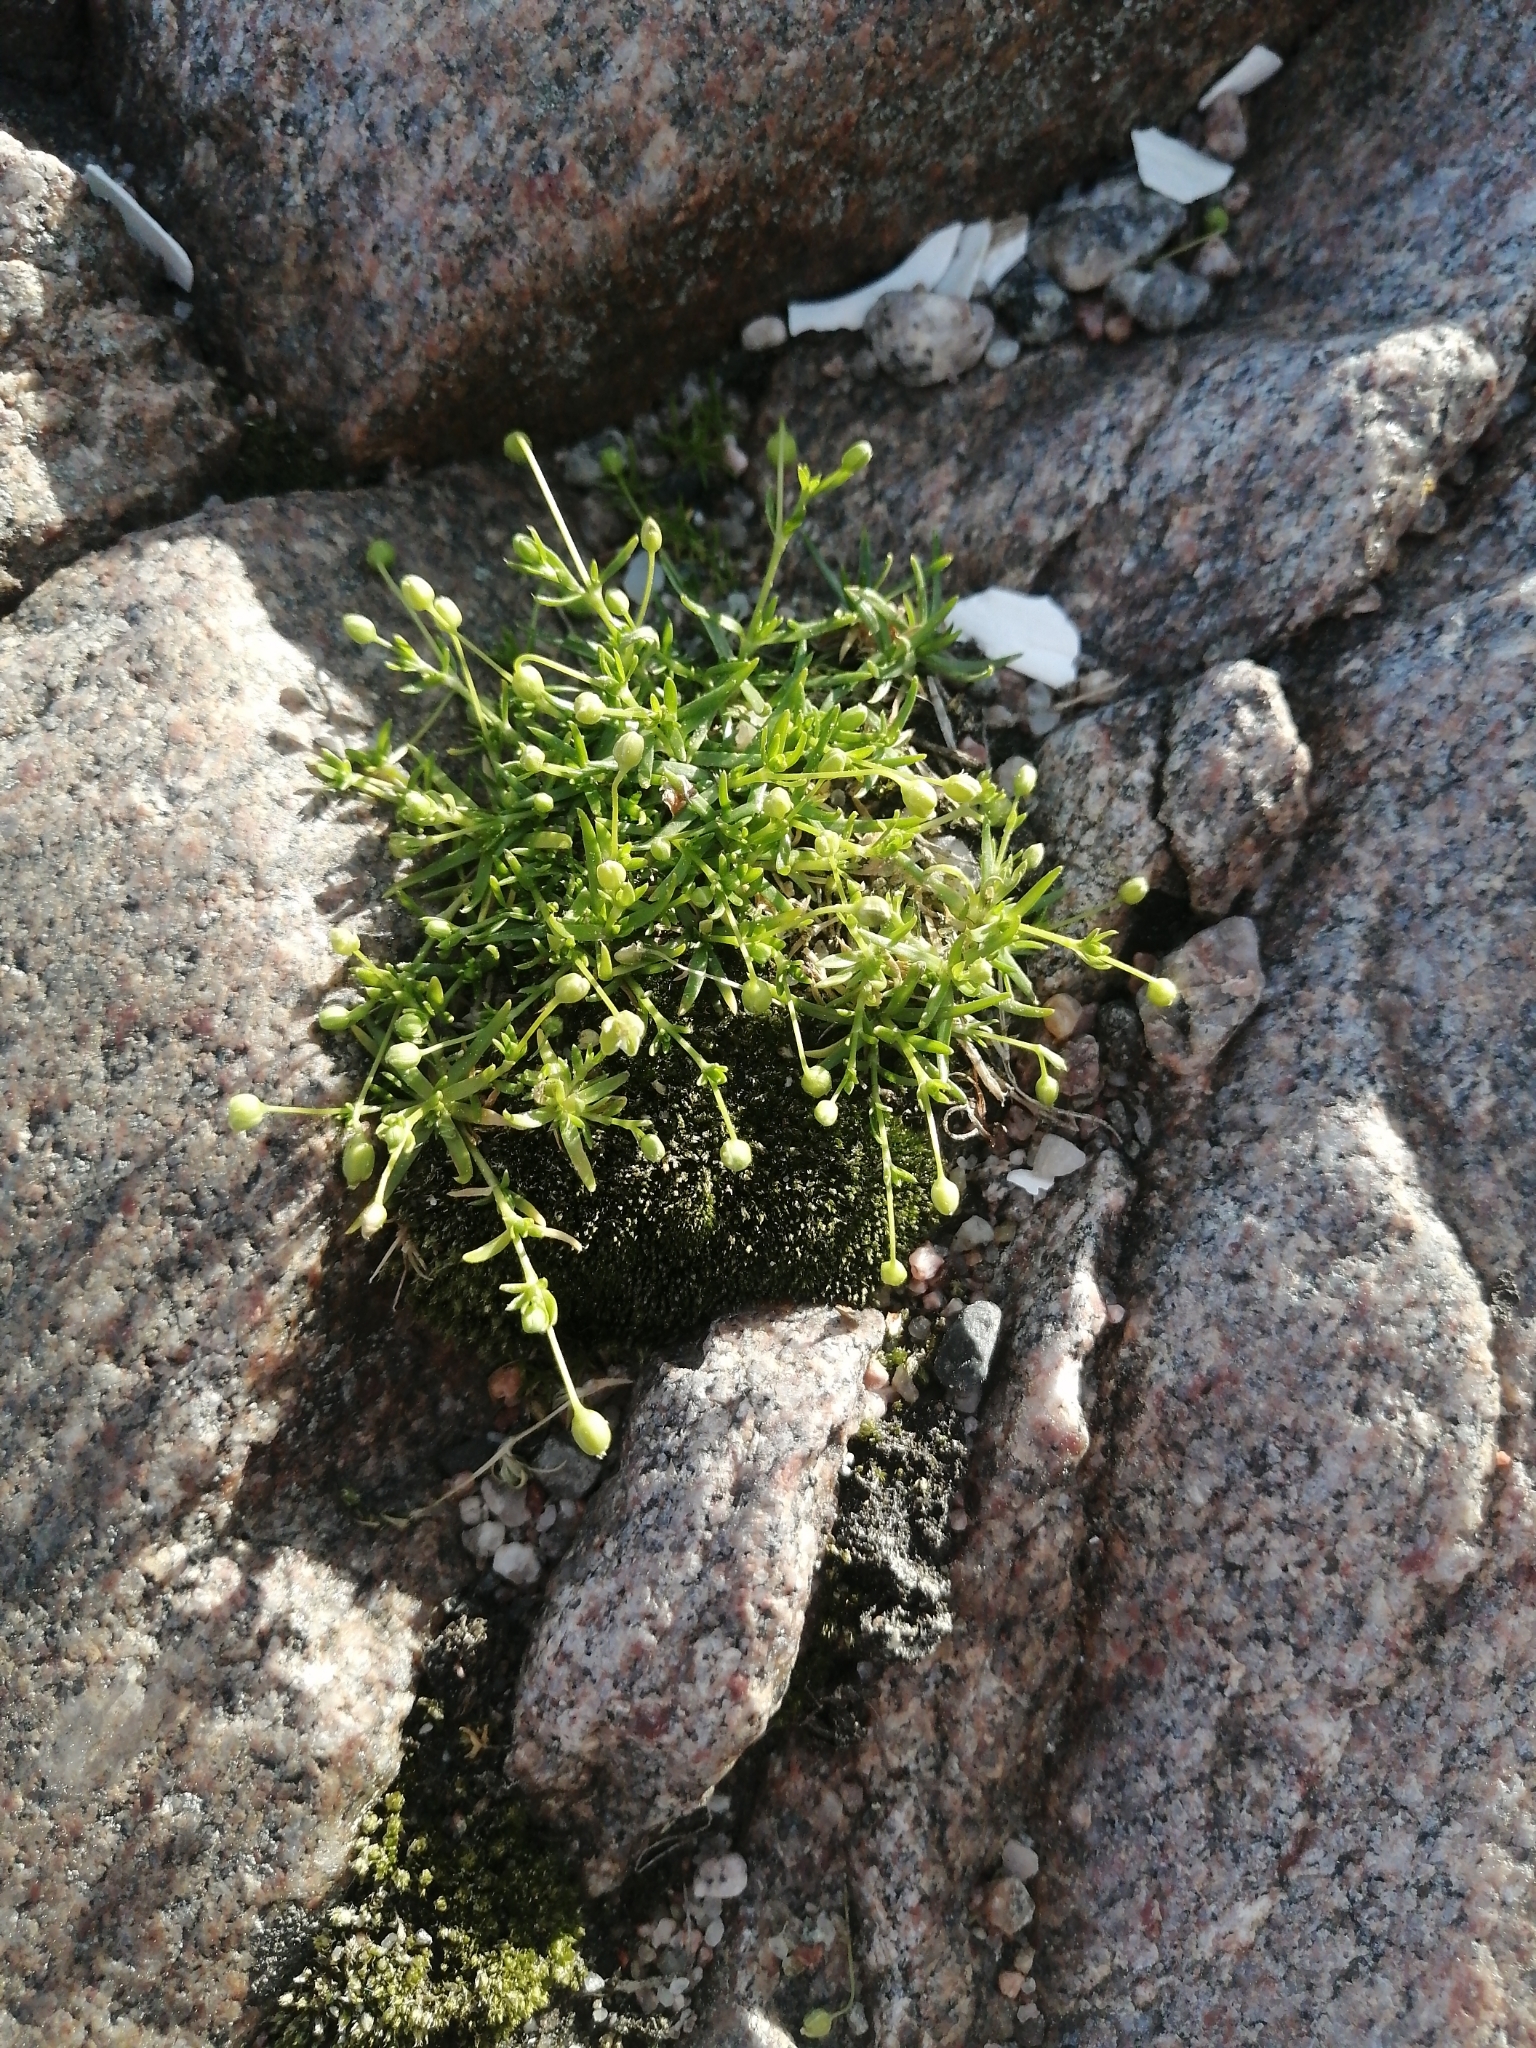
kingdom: Plantae
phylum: Tracheophyta
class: Magnoliopsida
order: Caryophyllales
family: Caryophyllaceae
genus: Sagina
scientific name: Sagina procumbens
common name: Procumbent pearlwort
